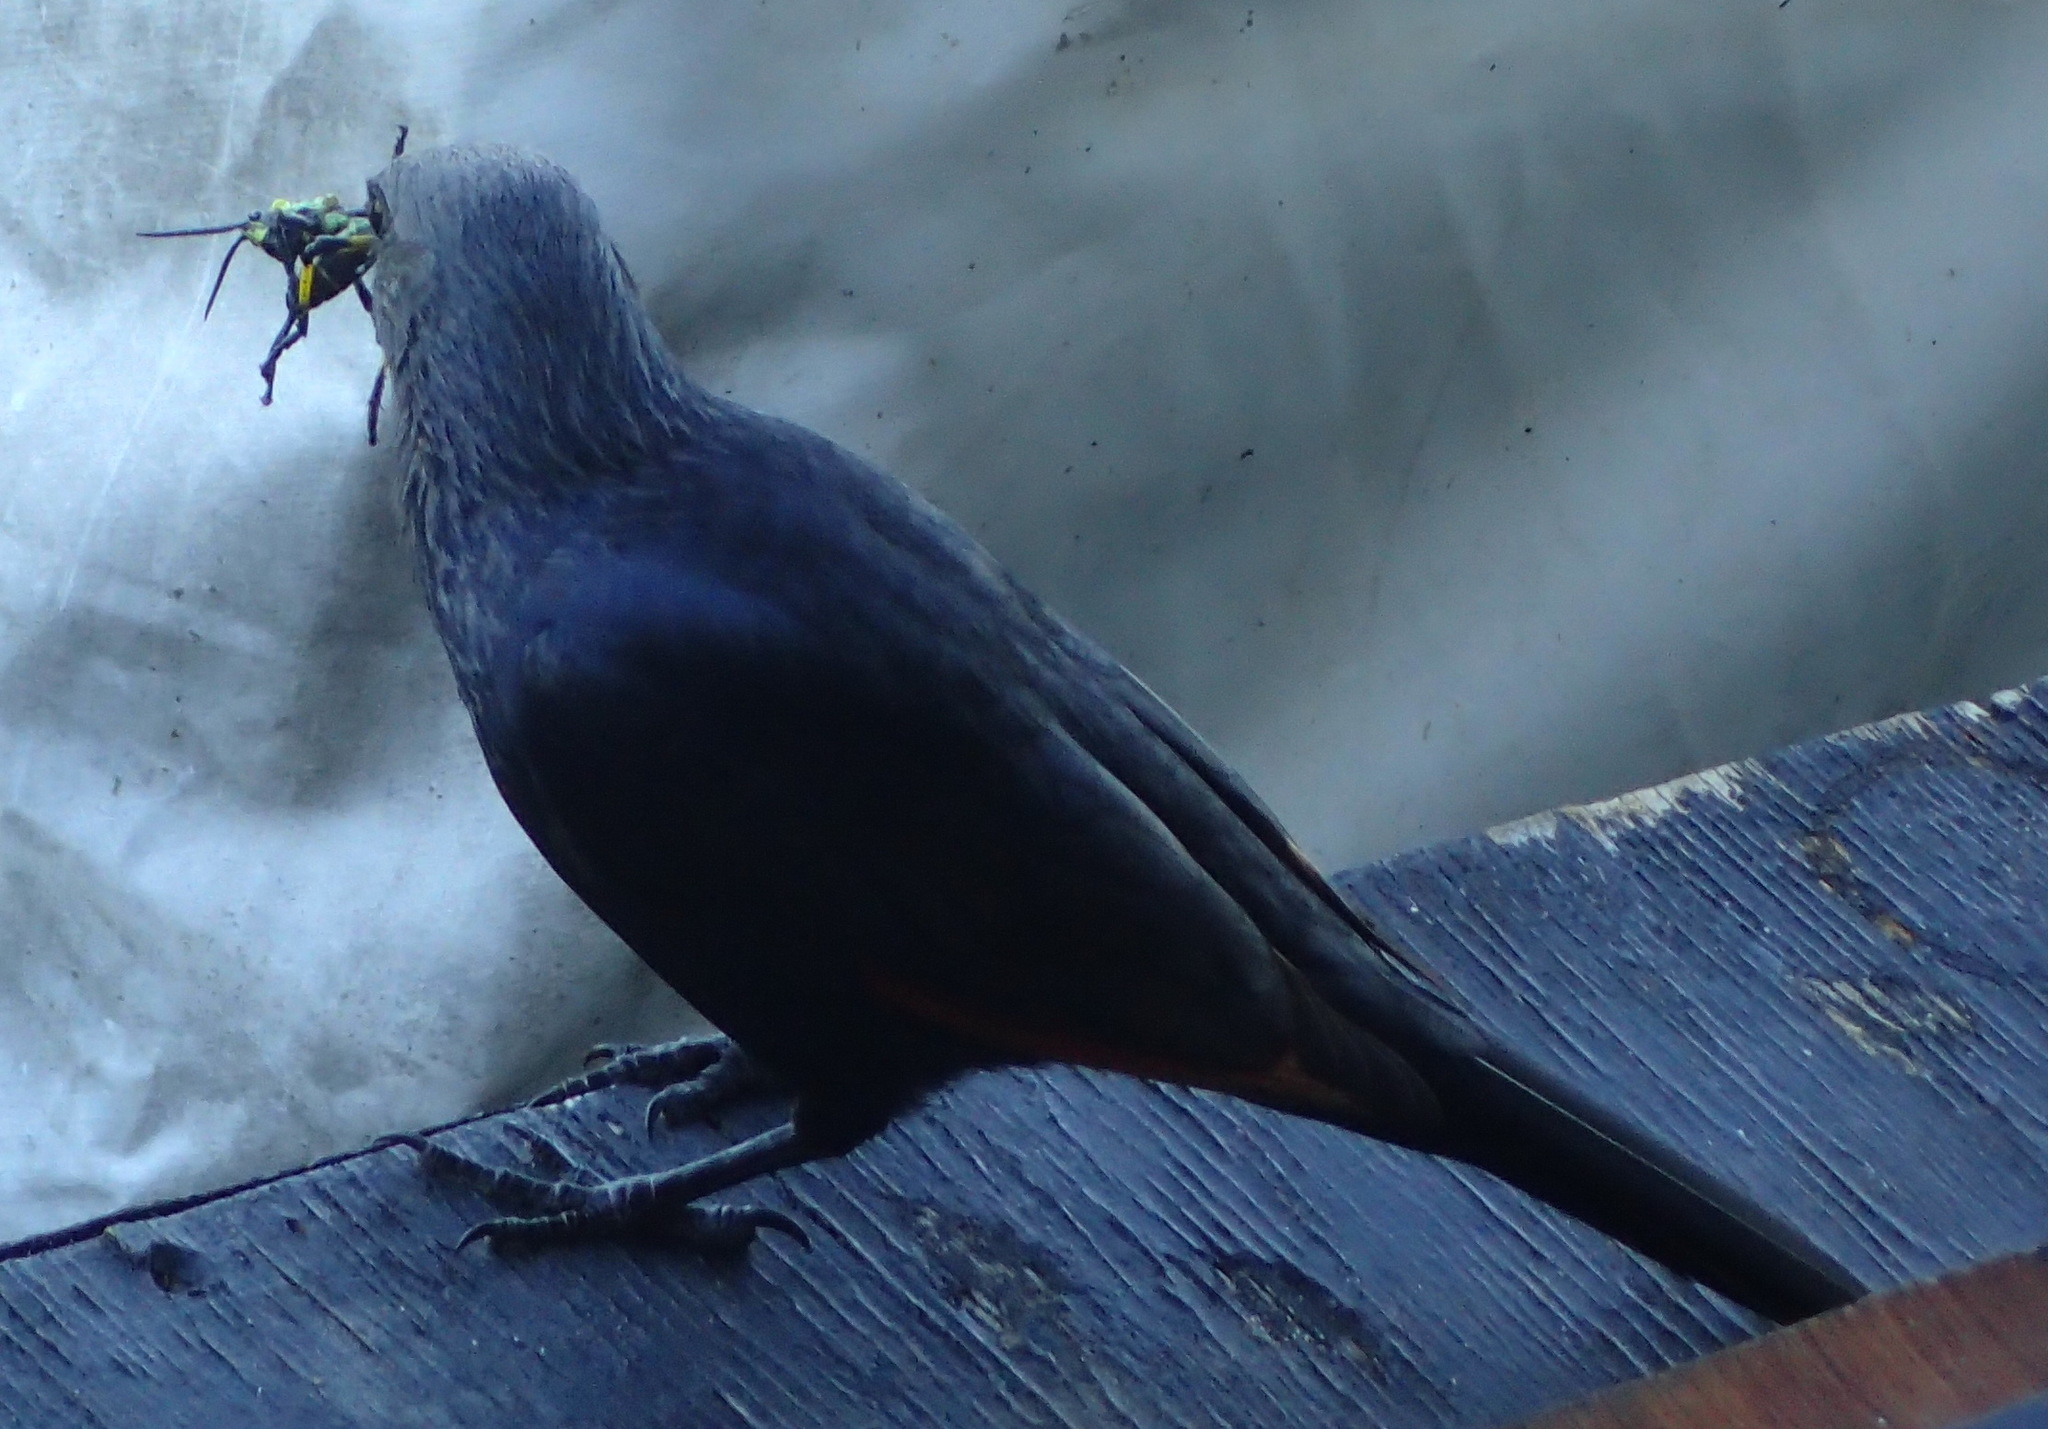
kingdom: Animalia
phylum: Chordata
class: Aves
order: Passeriformes
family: Sturnidae
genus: Onychognathus
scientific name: Onychognathus morio
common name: Red-winged starling
